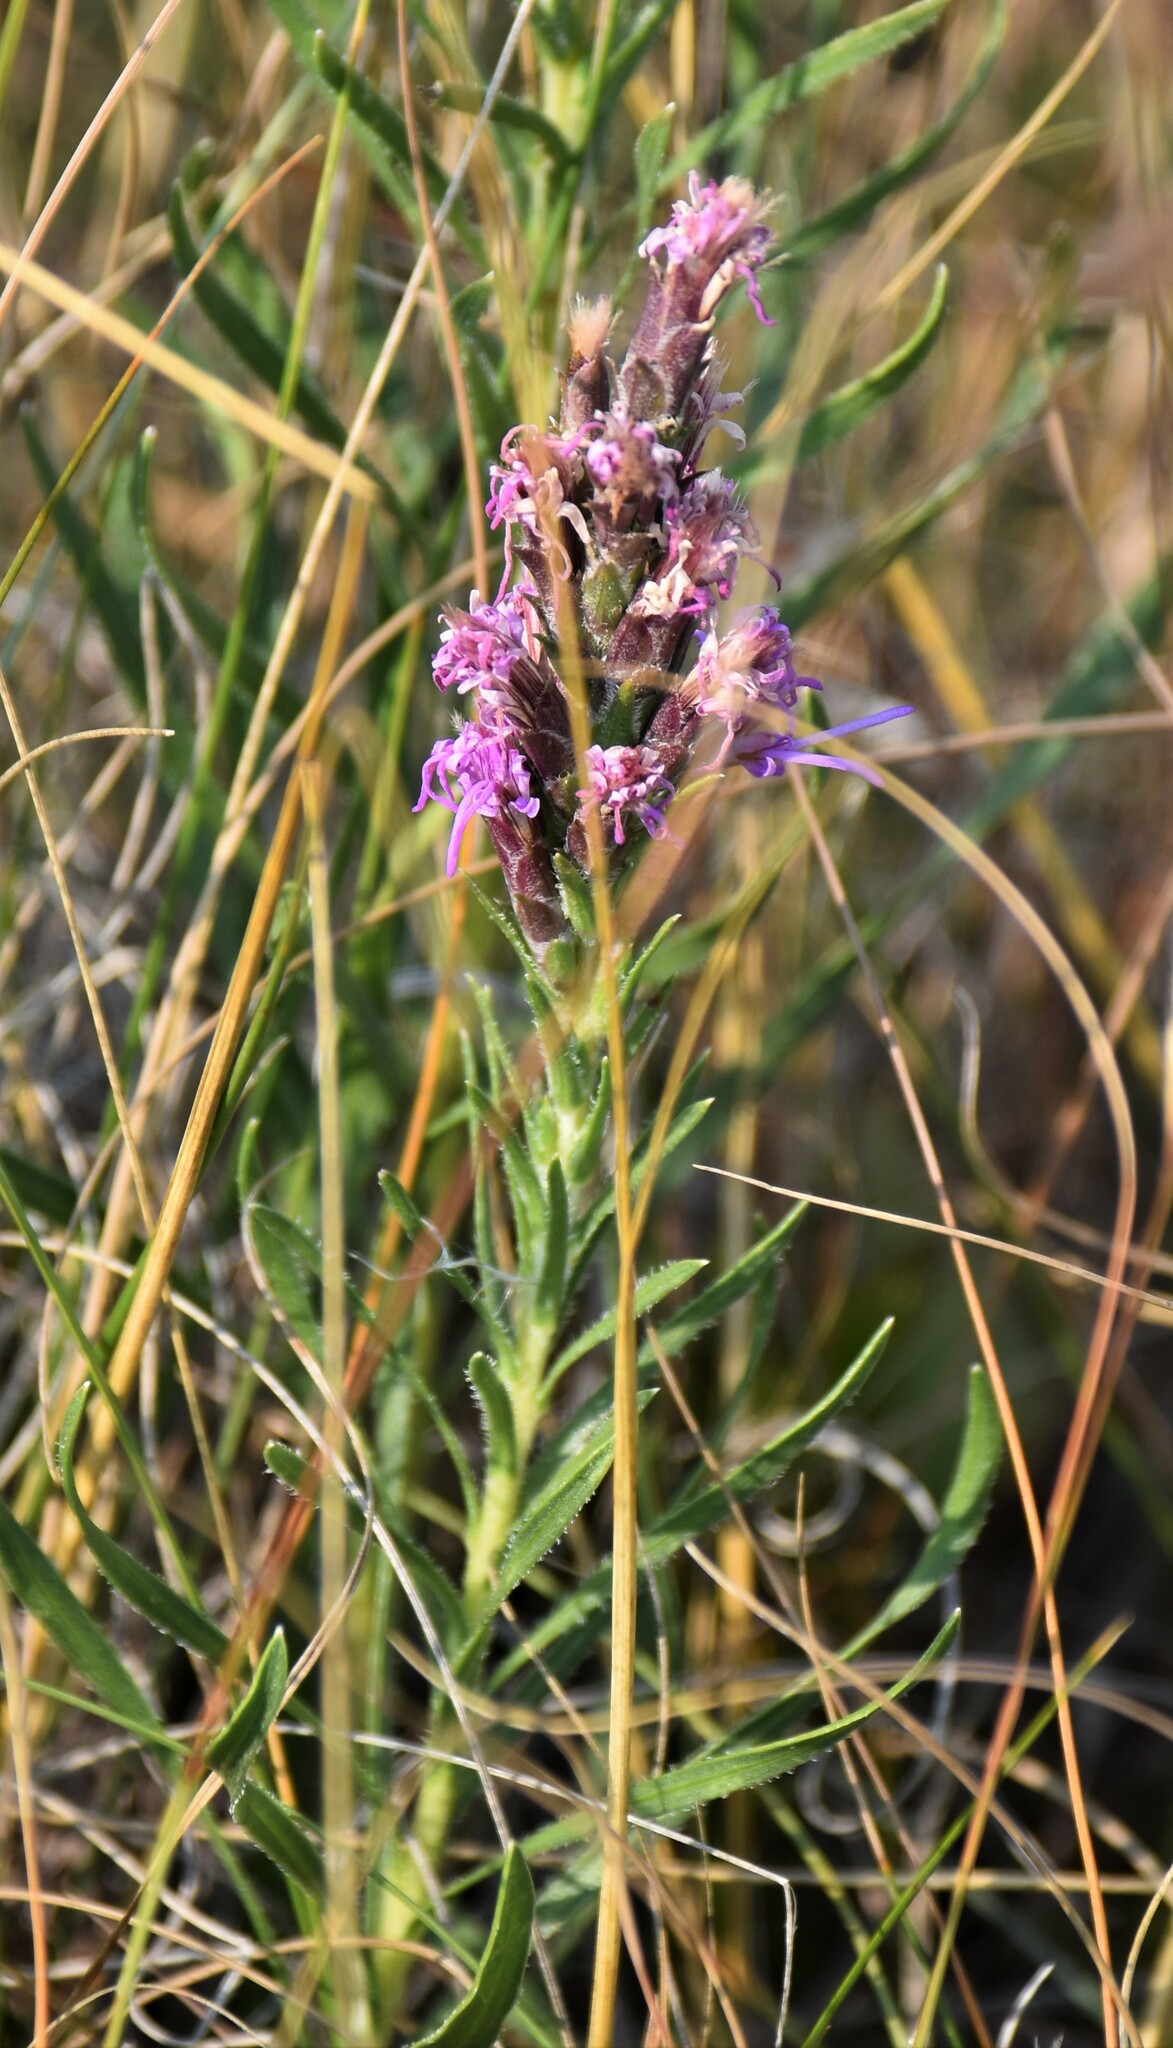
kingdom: Plantae
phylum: Tracheophyta
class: Magnoliopsida
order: Asterales
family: Asteraceae
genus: Liatris
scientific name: Liatris punctata
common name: Dotted gayfeather
